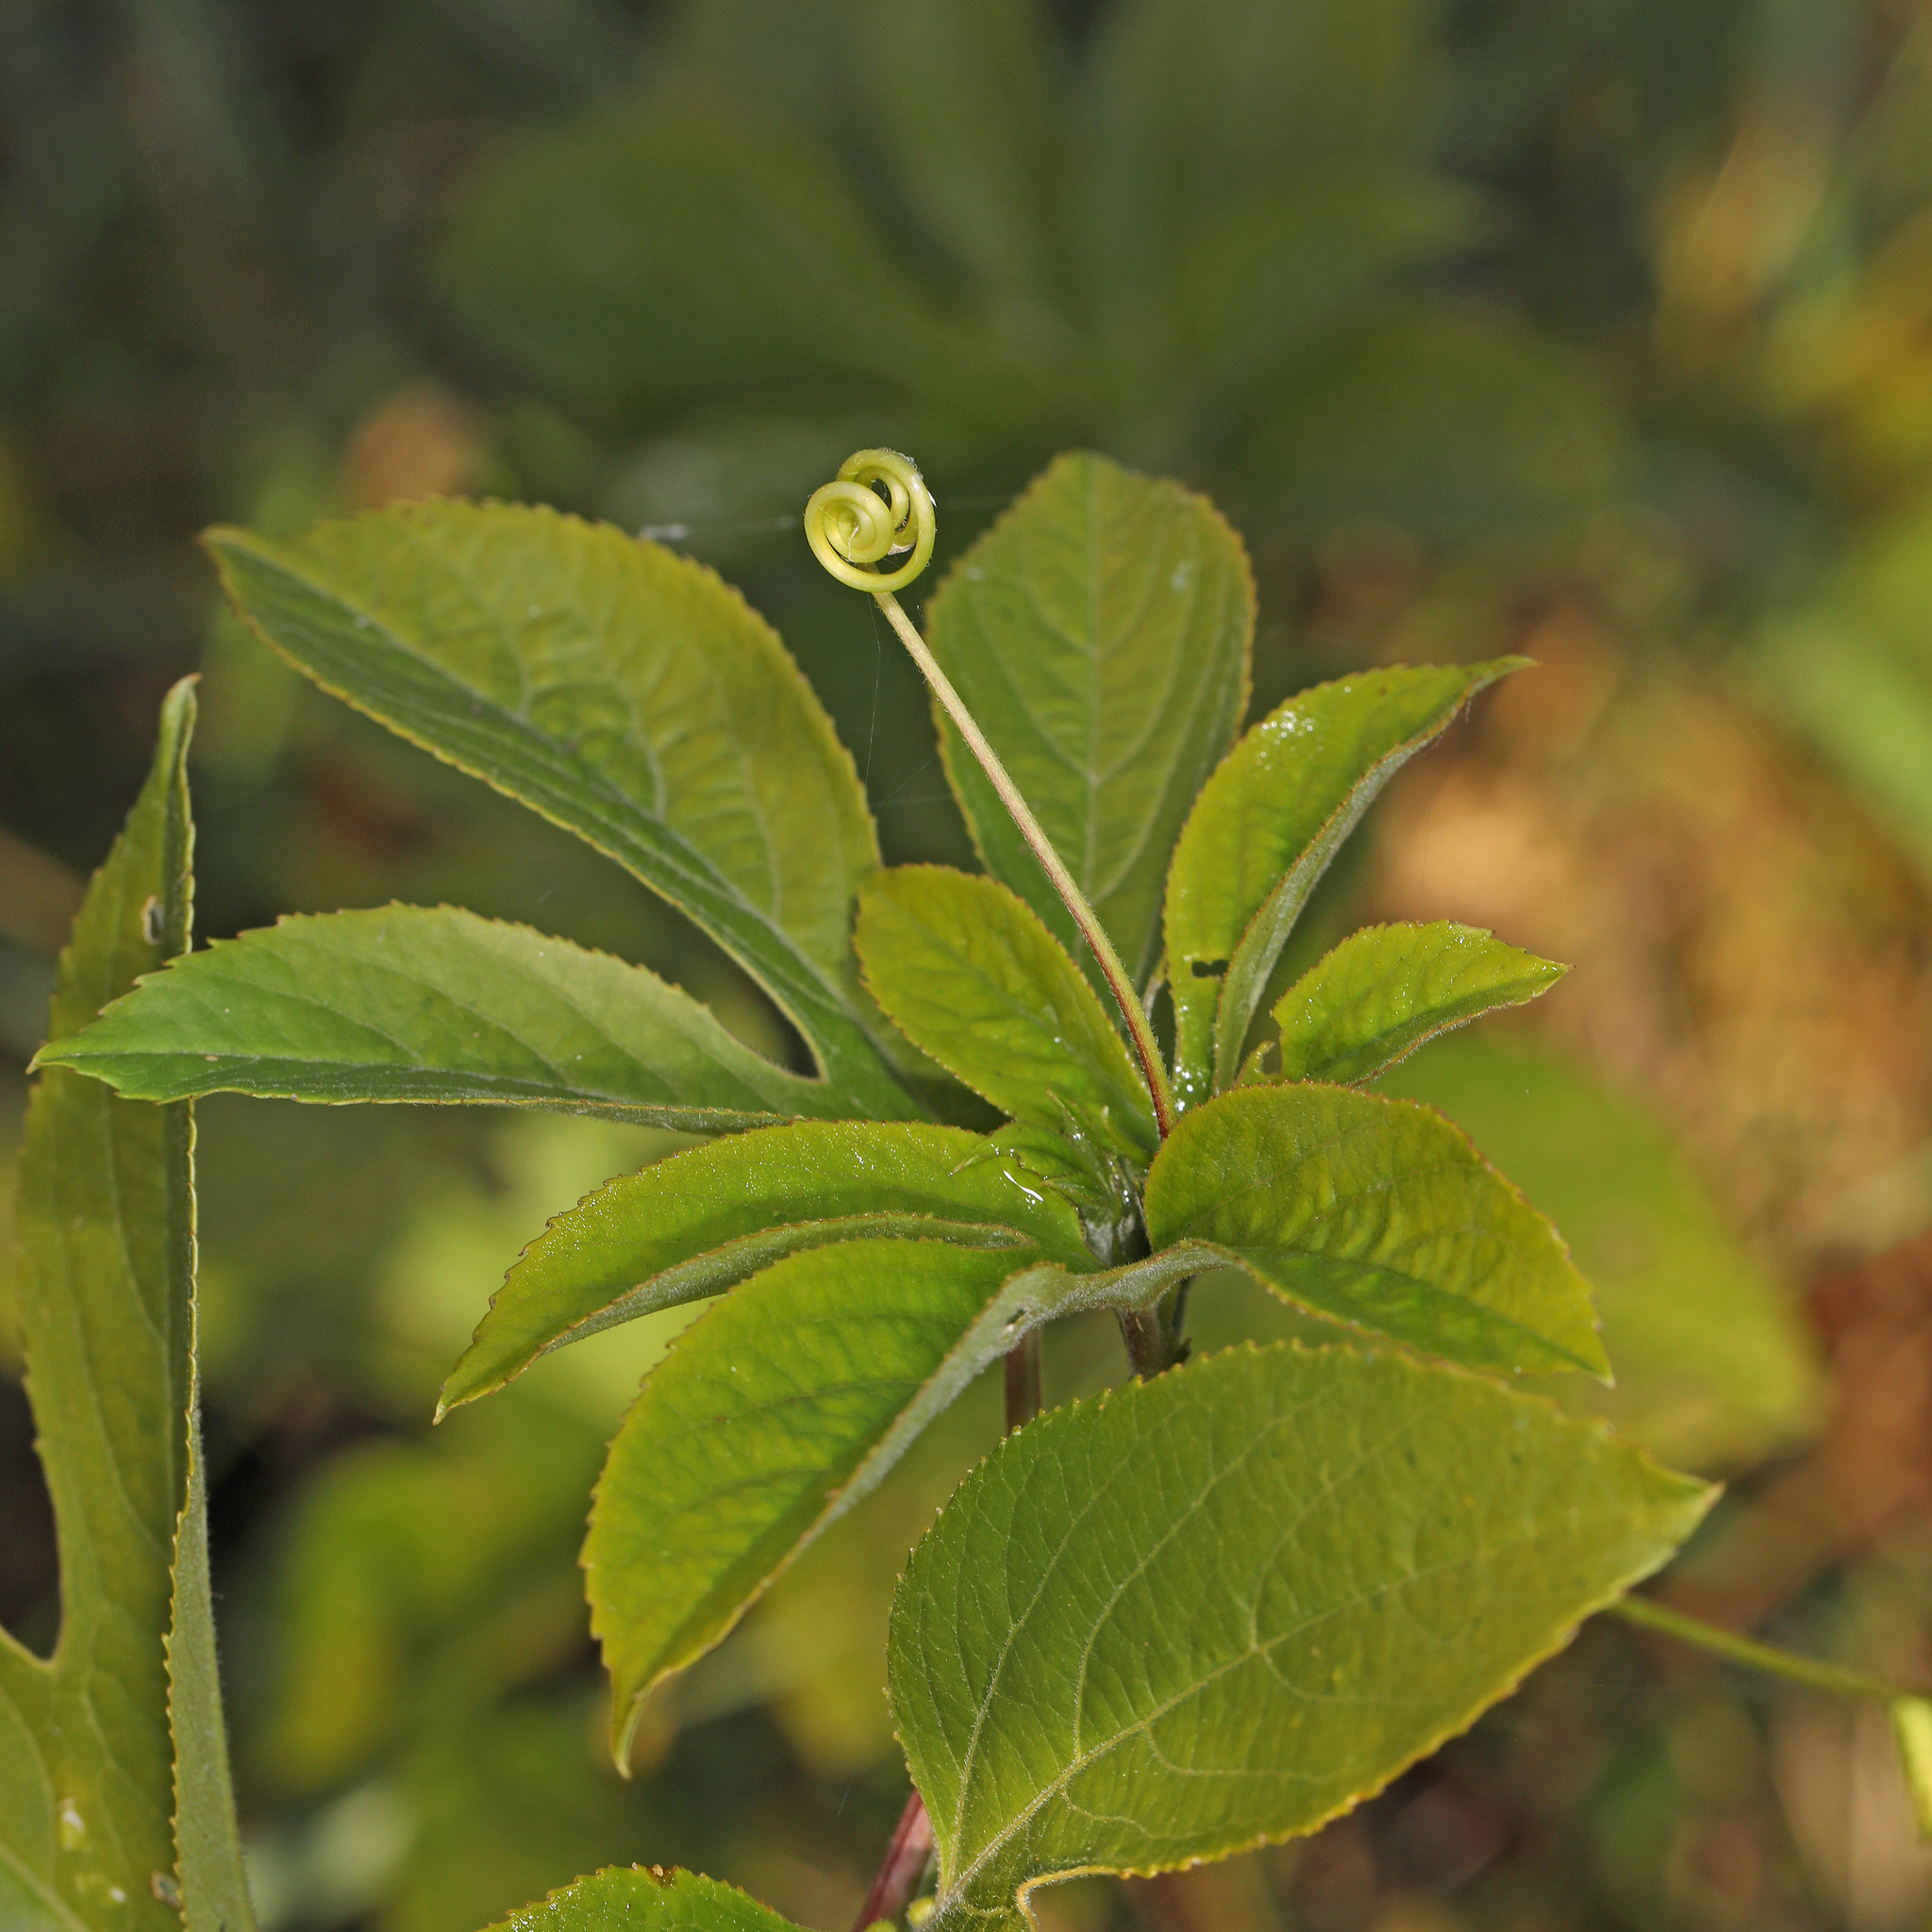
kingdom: Plantae
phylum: Tracheophyta
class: Magnoliopsida
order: Malpighiales
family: Passifloraceae
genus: Passiflora
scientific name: Passiflora incarnata
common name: Apricot-vine
